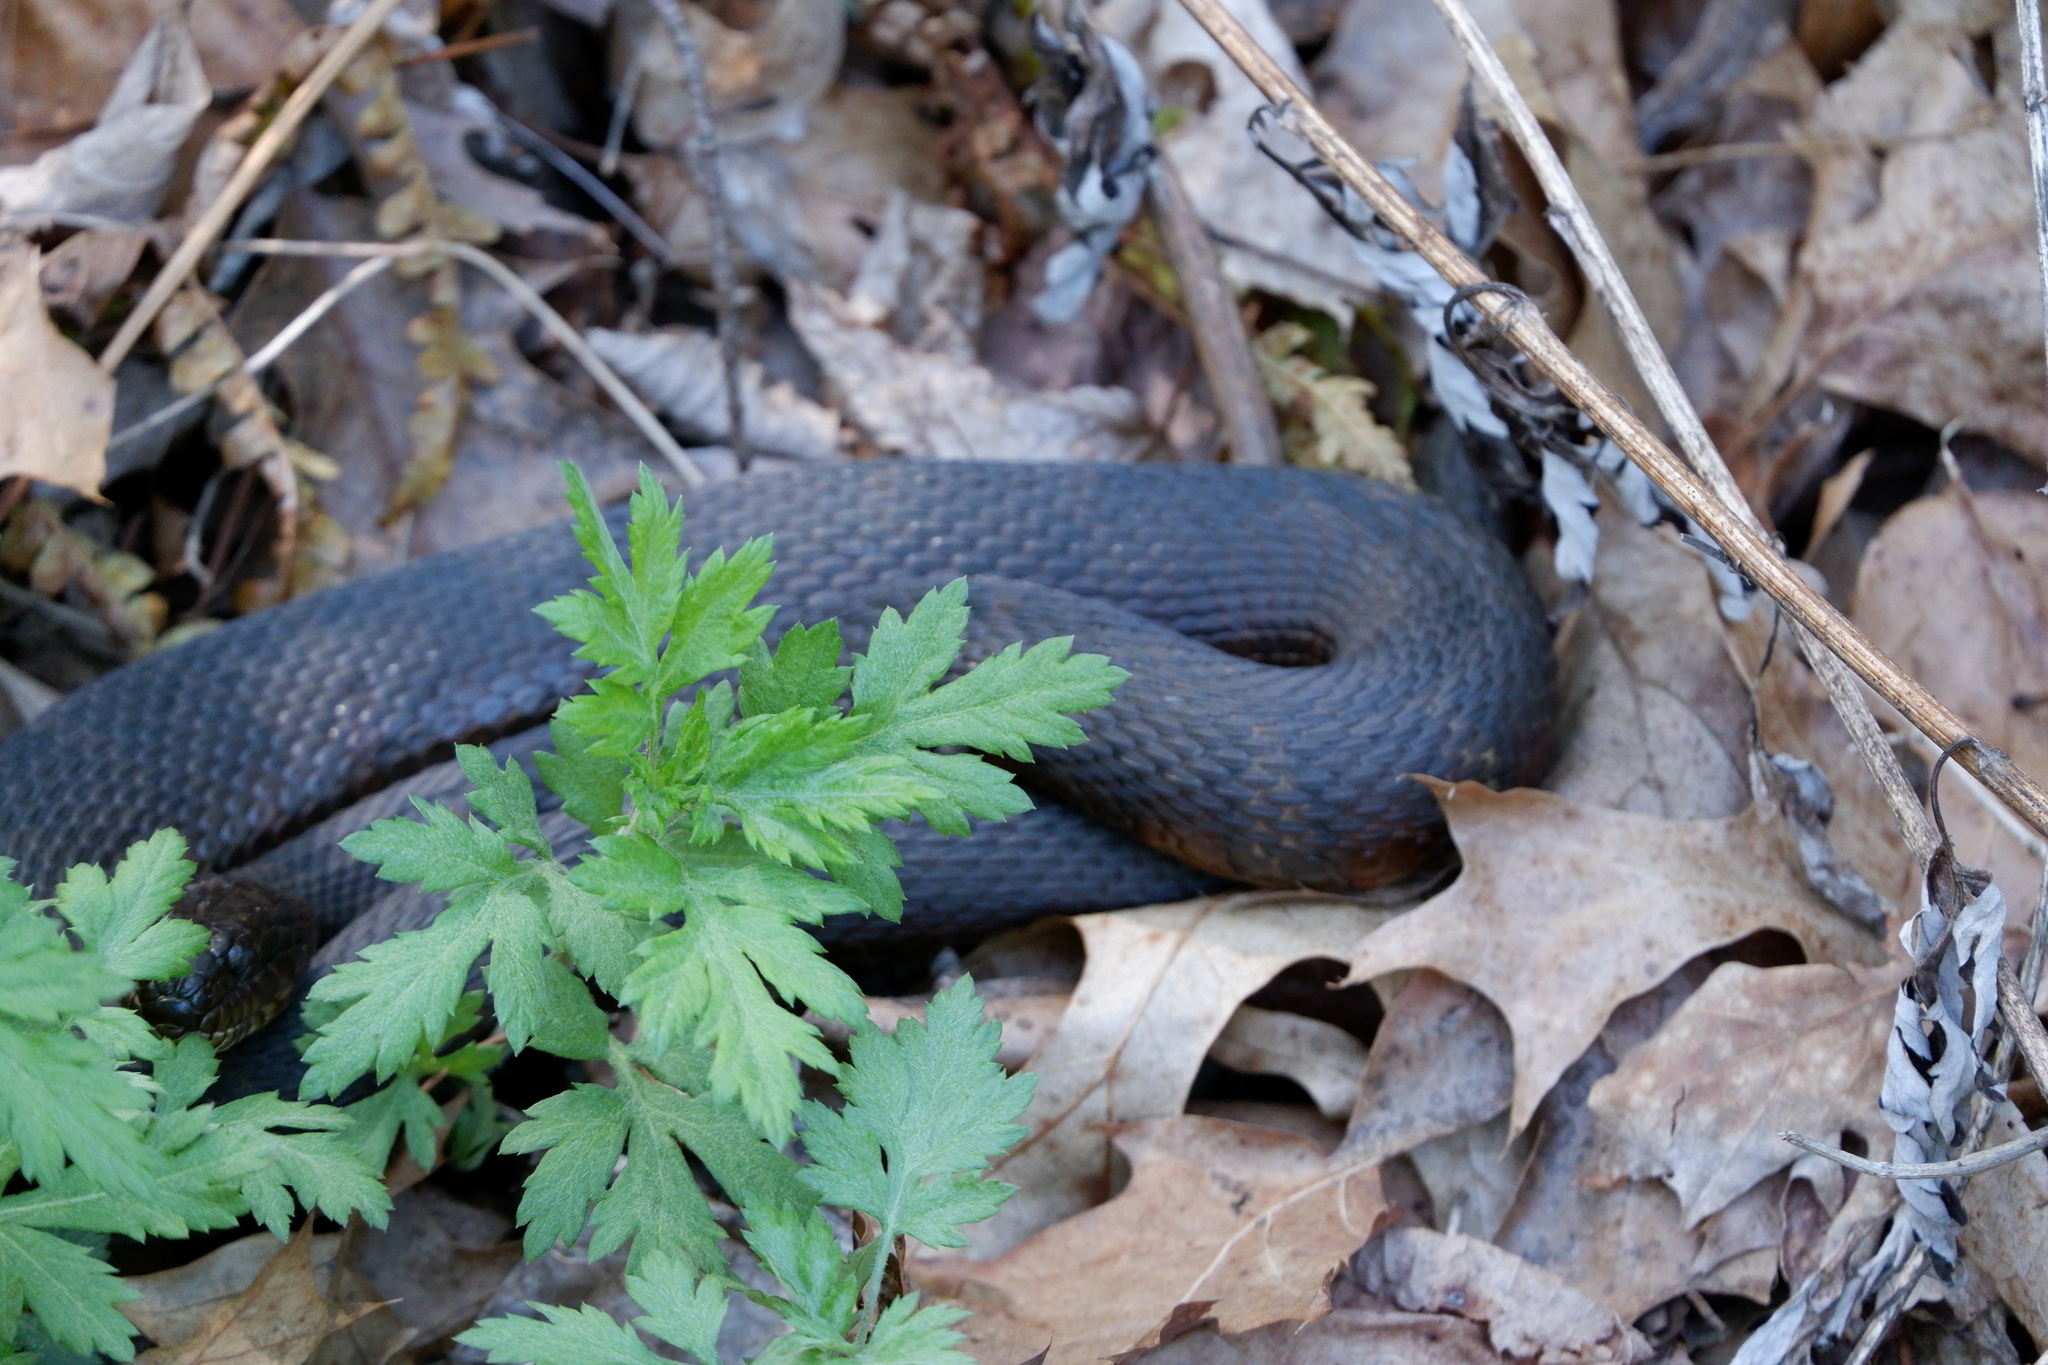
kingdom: Animalia
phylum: Chordata
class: Squamata
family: Colubridae
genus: Nerodia
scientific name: Nerodia sipedon
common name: Northern water snake
